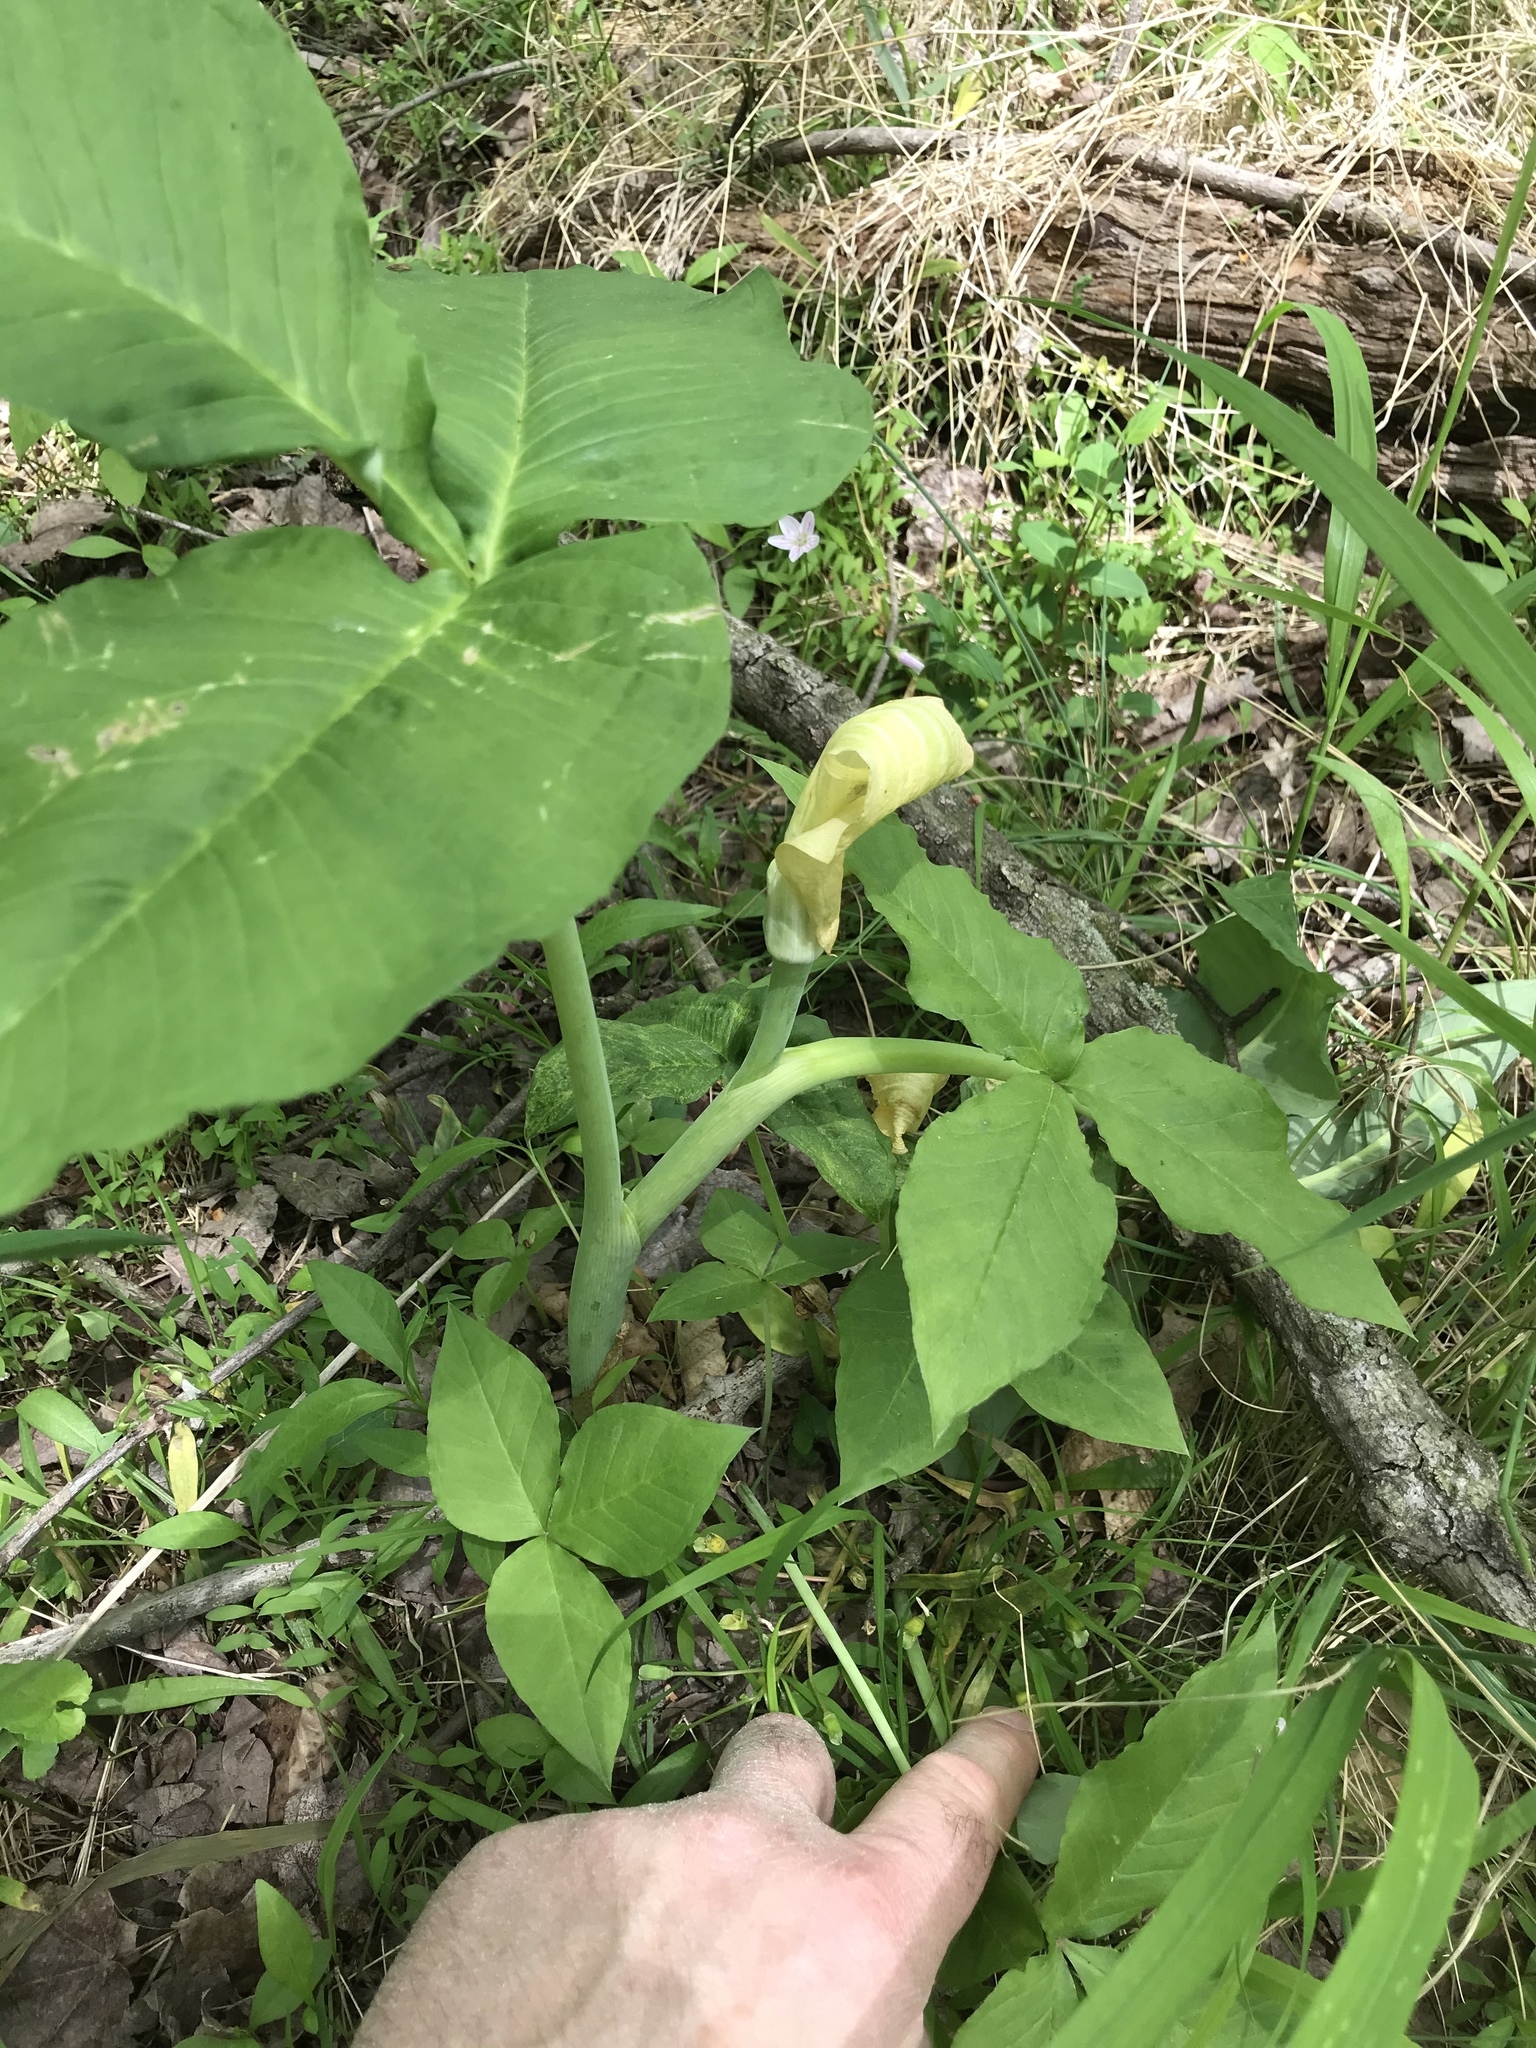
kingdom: Plantae
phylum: Tracheophyta
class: Liliopsida
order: Alismatales
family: Araceae
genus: Arisaema
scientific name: Arisaema triphyllum
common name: Jack-in-the-pulpit
